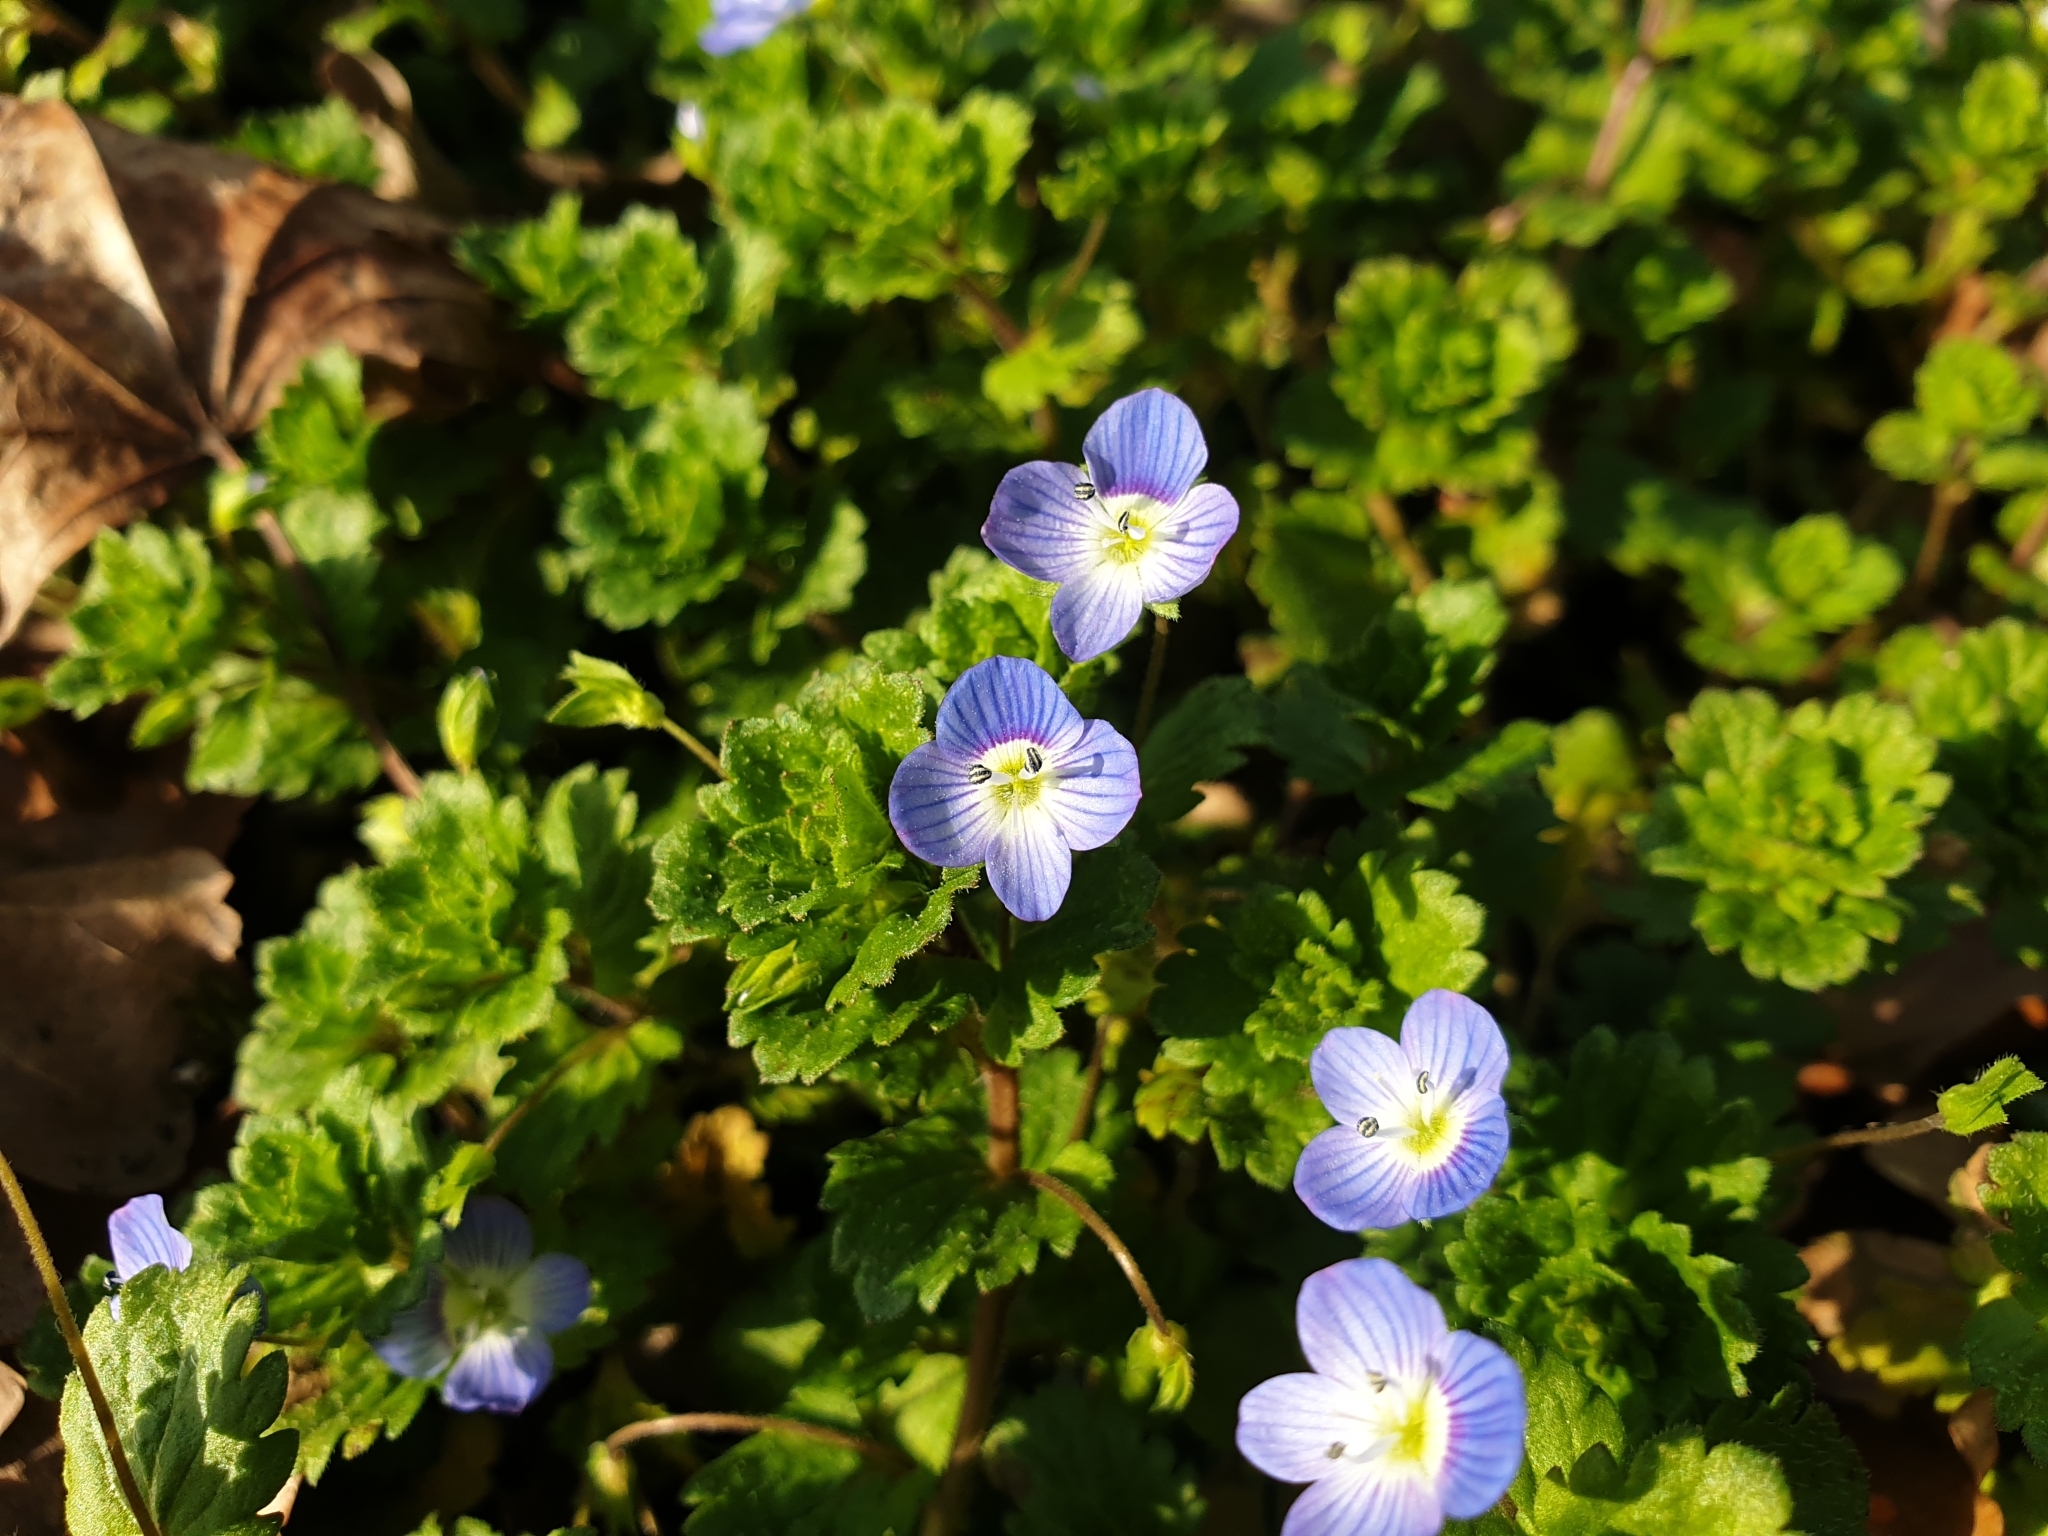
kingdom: Plantae
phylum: Tracheophyta
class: Magnoliopsida
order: Lamiales
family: Plantaginaceae
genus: Veronica
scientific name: Veronica persica
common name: Common field-speedwell
